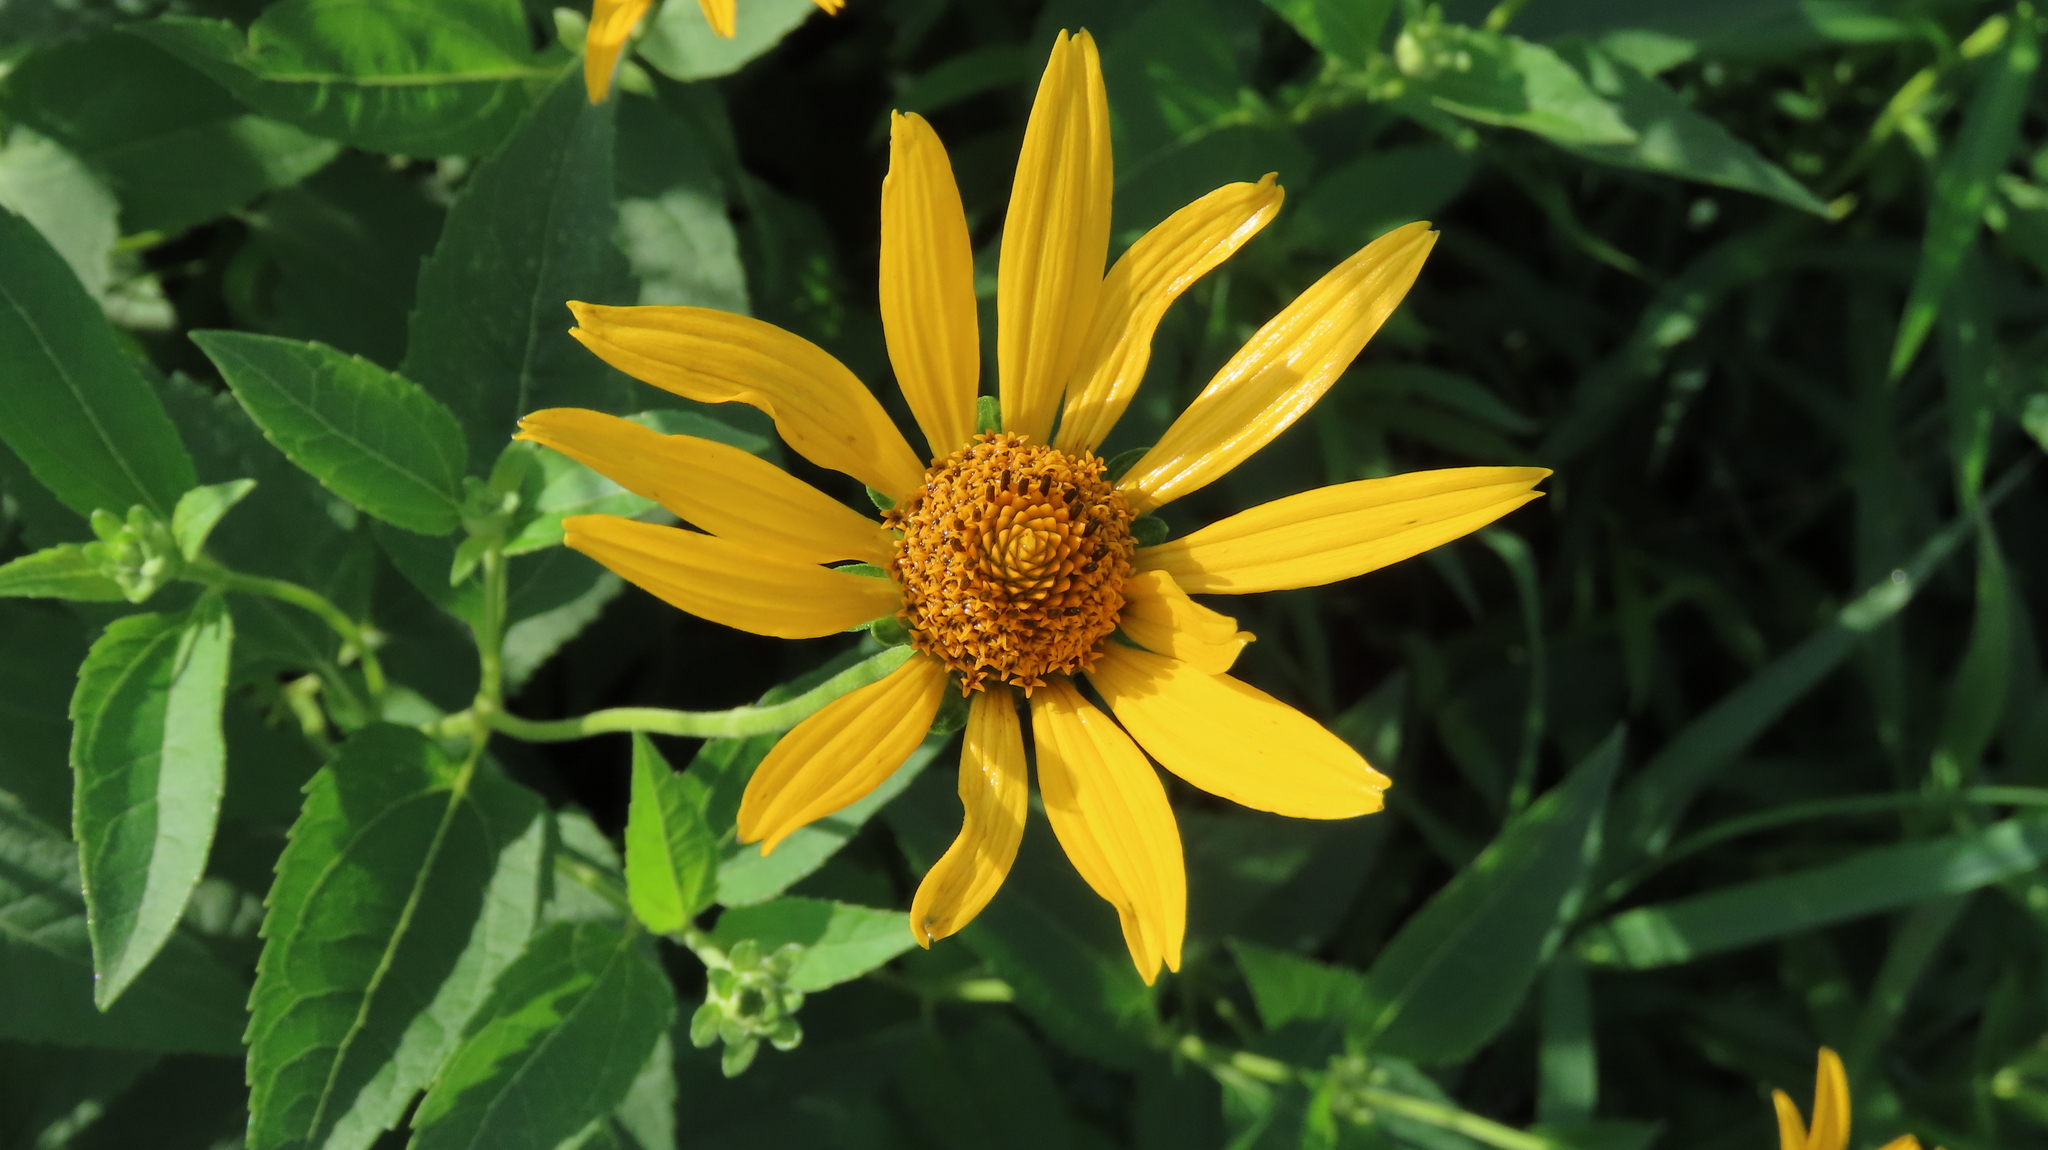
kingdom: Plantae
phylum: Tracheophyta
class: Magnoliopsida
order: Asterales
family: Asteraceae
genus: Heliopsis
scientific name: Heliopsis helianthoides
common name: False sunflower
